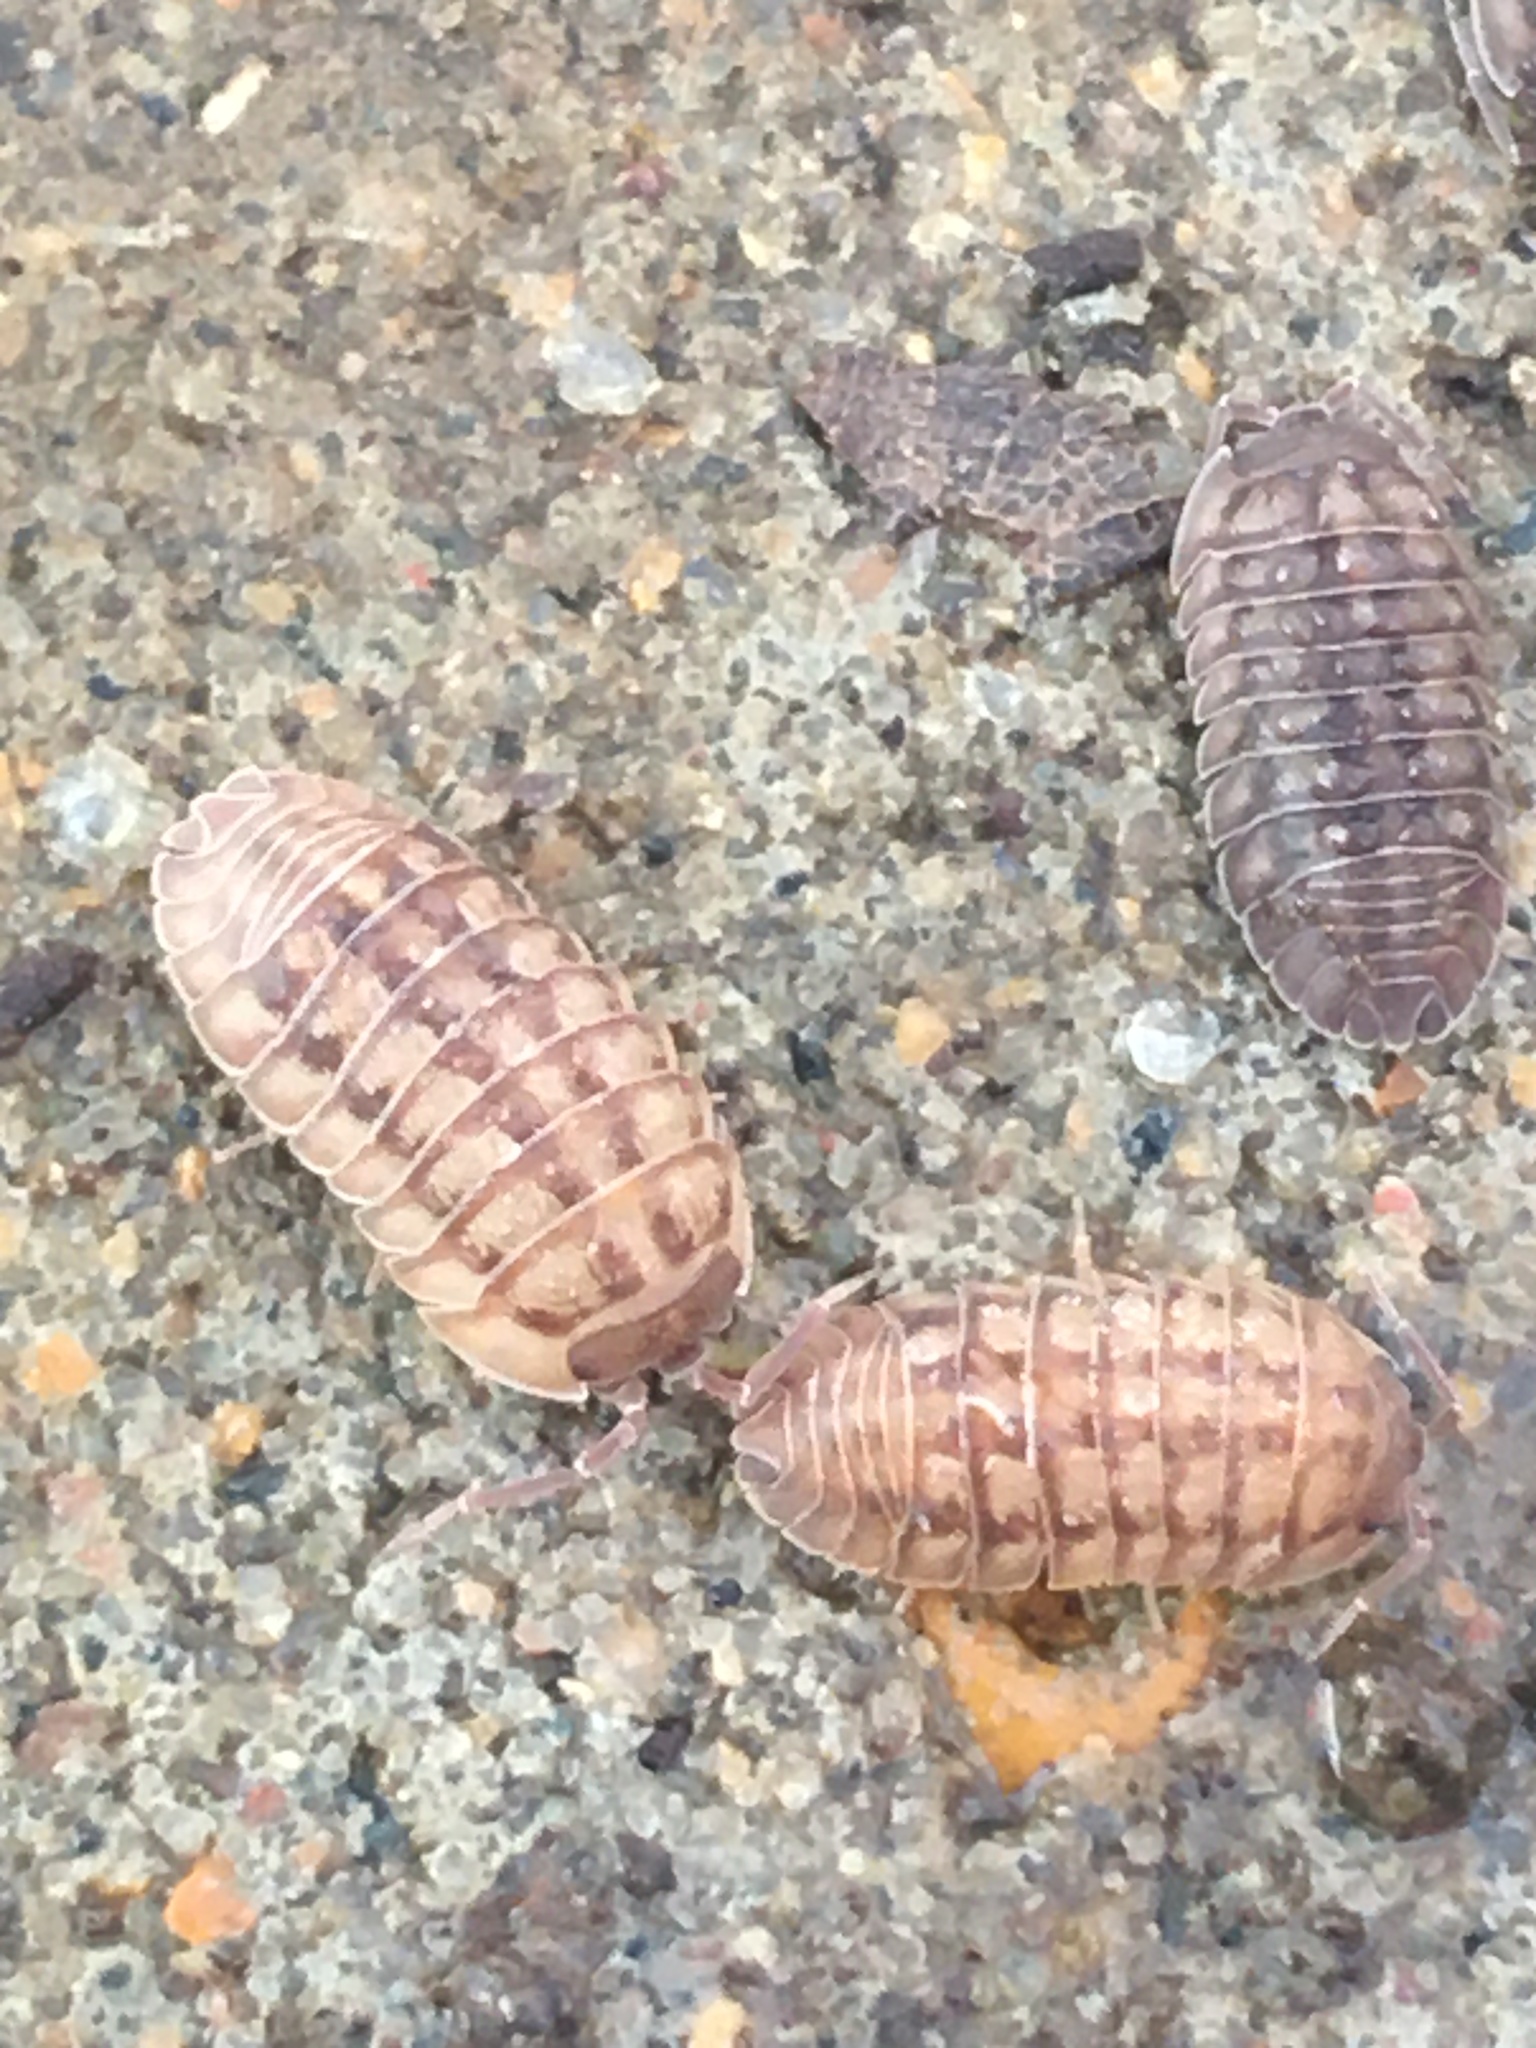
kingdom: Animalia
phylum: Arthropoda
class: Malacostraca
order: Isopoda
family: Armadillidiidae
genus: Armadillidium
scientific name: Armadillidium nasatum
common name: Isopod
